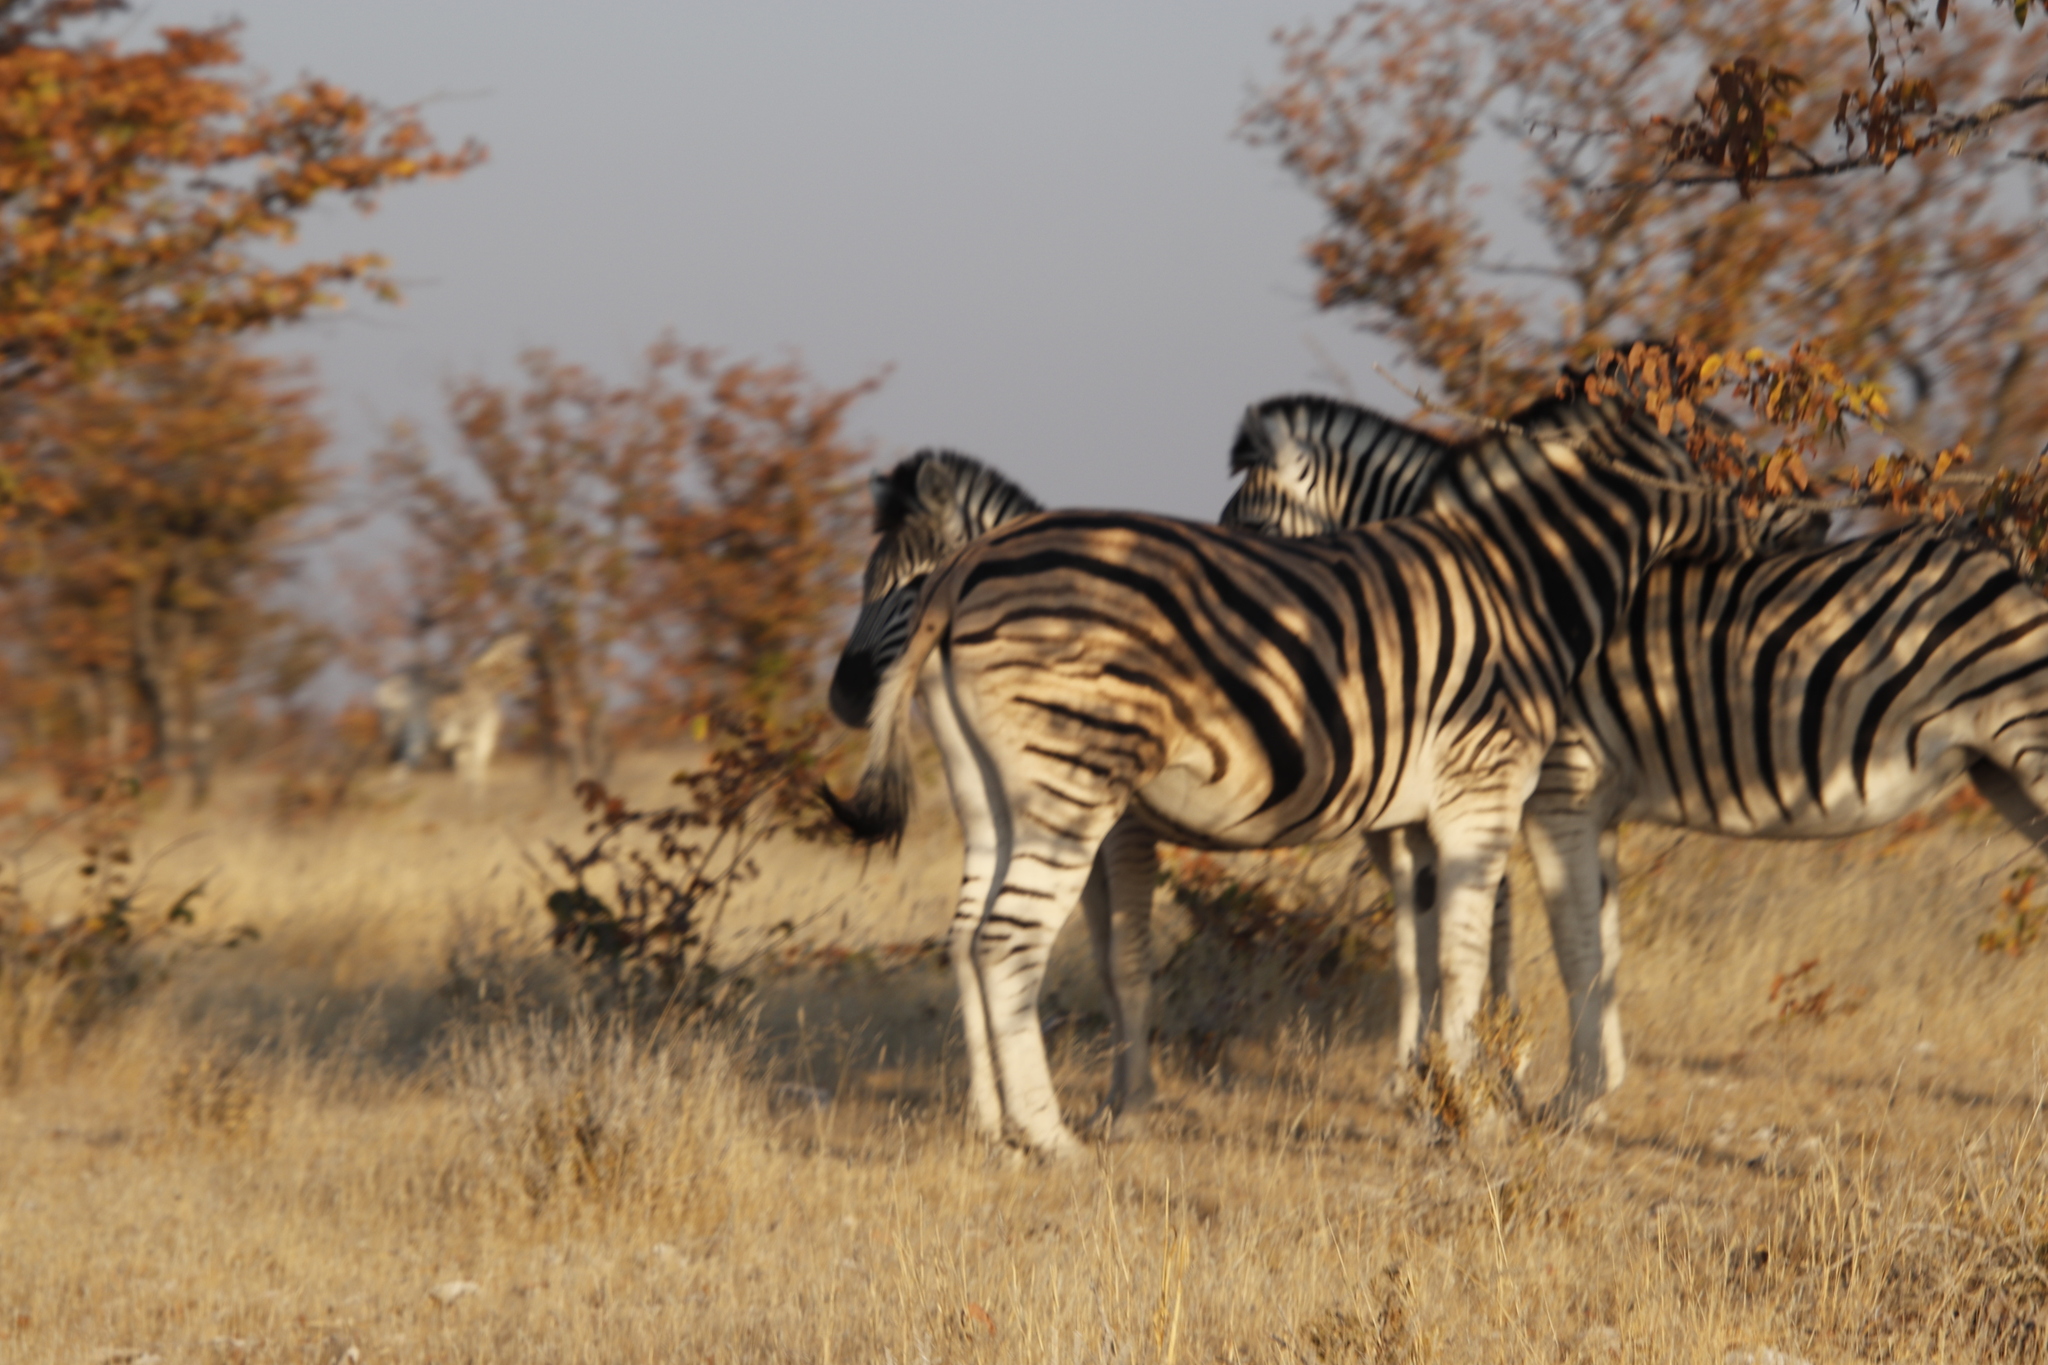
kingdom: Animalia
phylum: Chordata
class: Mammalia
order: Perissodactyla
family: Equidae
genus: Equus
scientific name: Equus quagga
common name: Plains zebra
